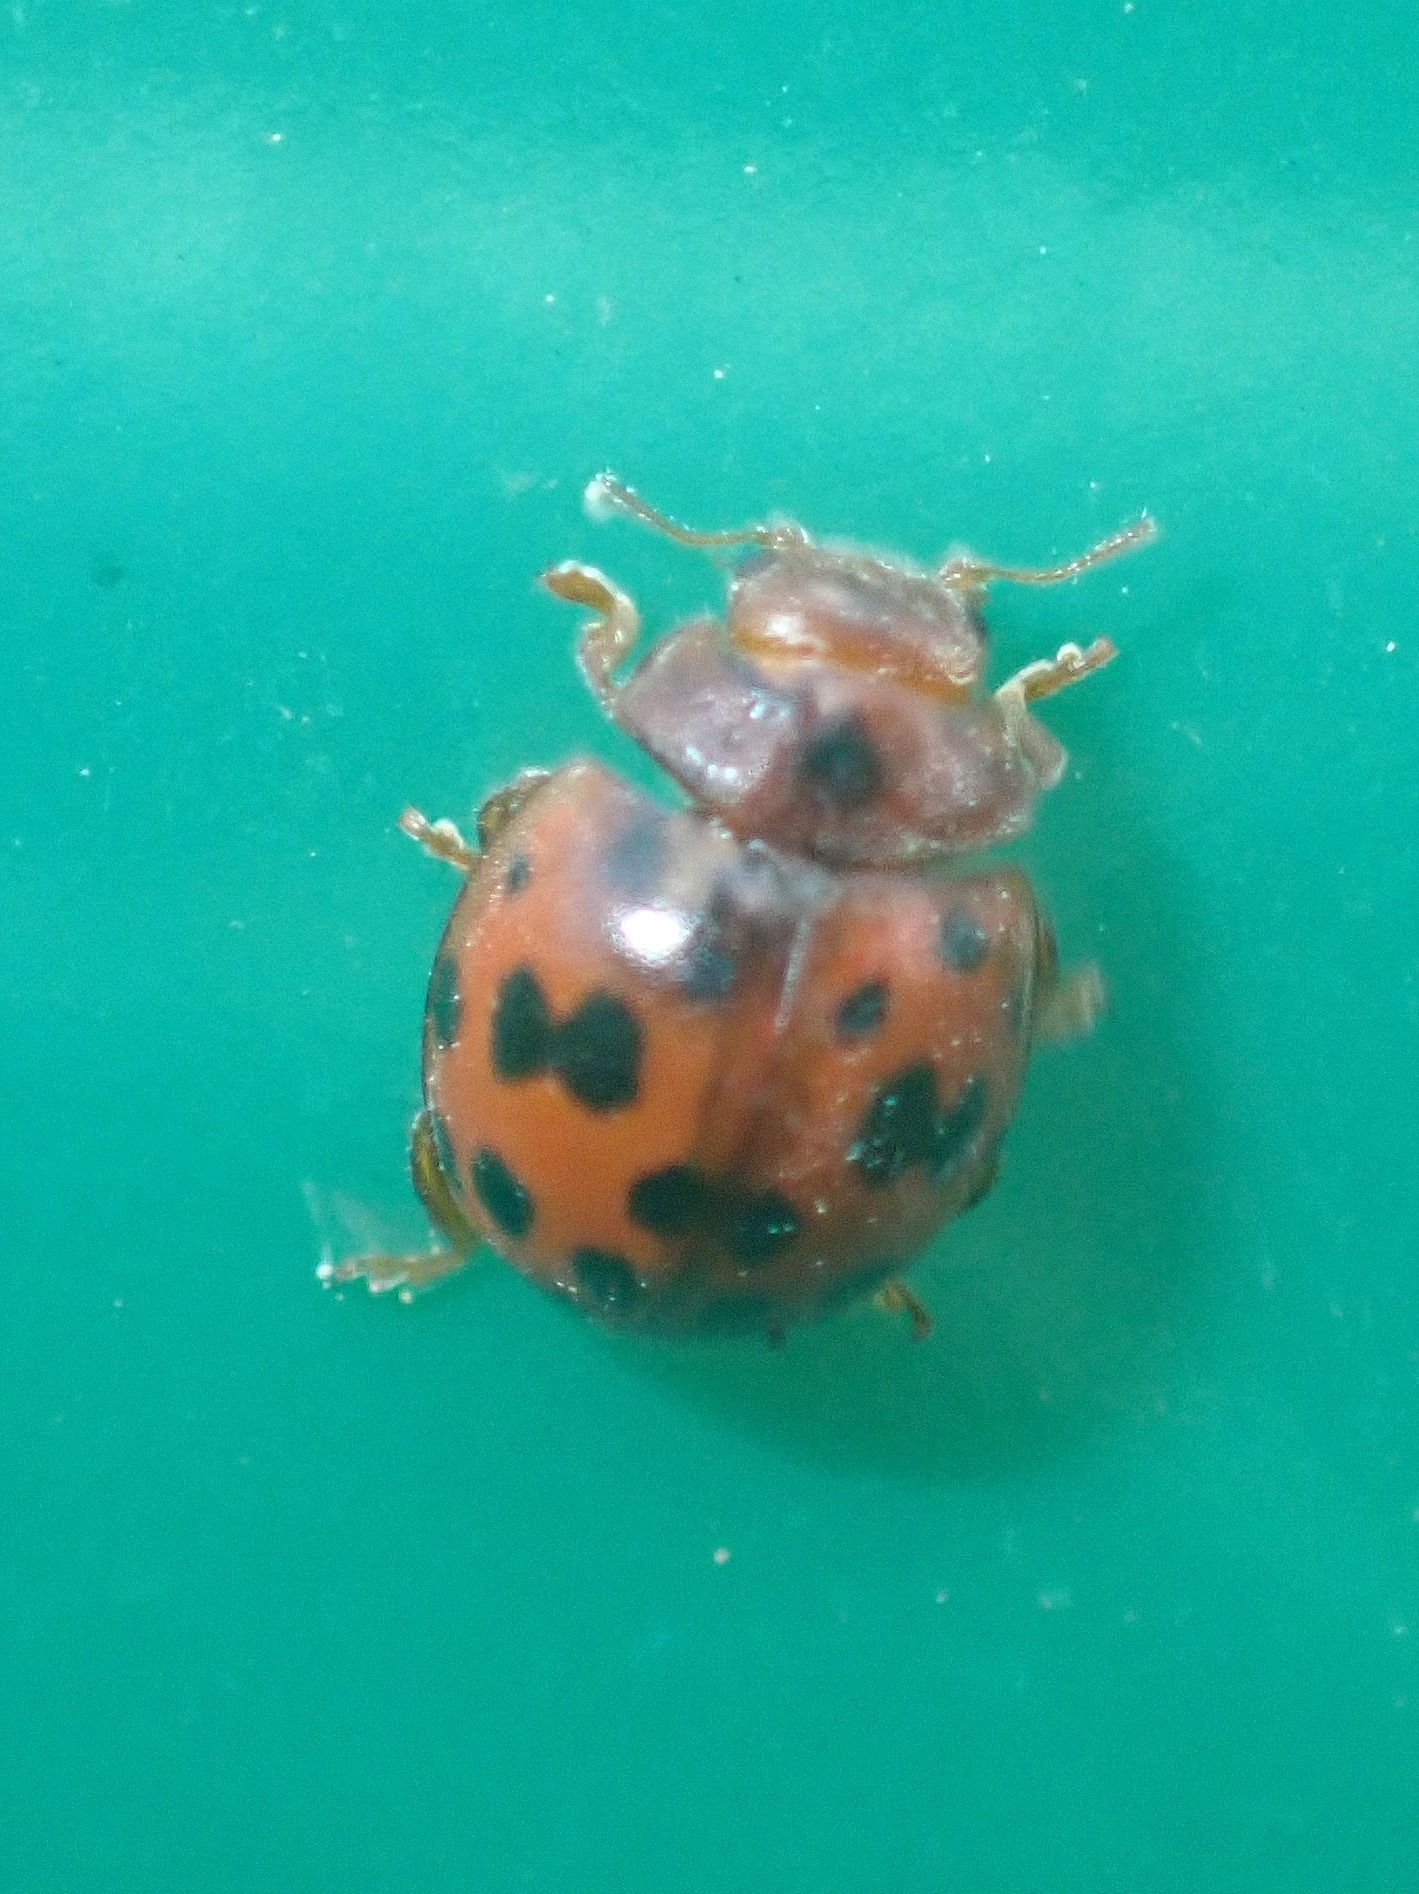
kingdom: Animalia
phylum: Arthropoda
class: Insecta
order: Coleoptera
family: Coccinellidae
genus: Subcoccinella
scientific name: Subcoccinella vigintiquatuorpunctata
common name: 24-spot ladybird
